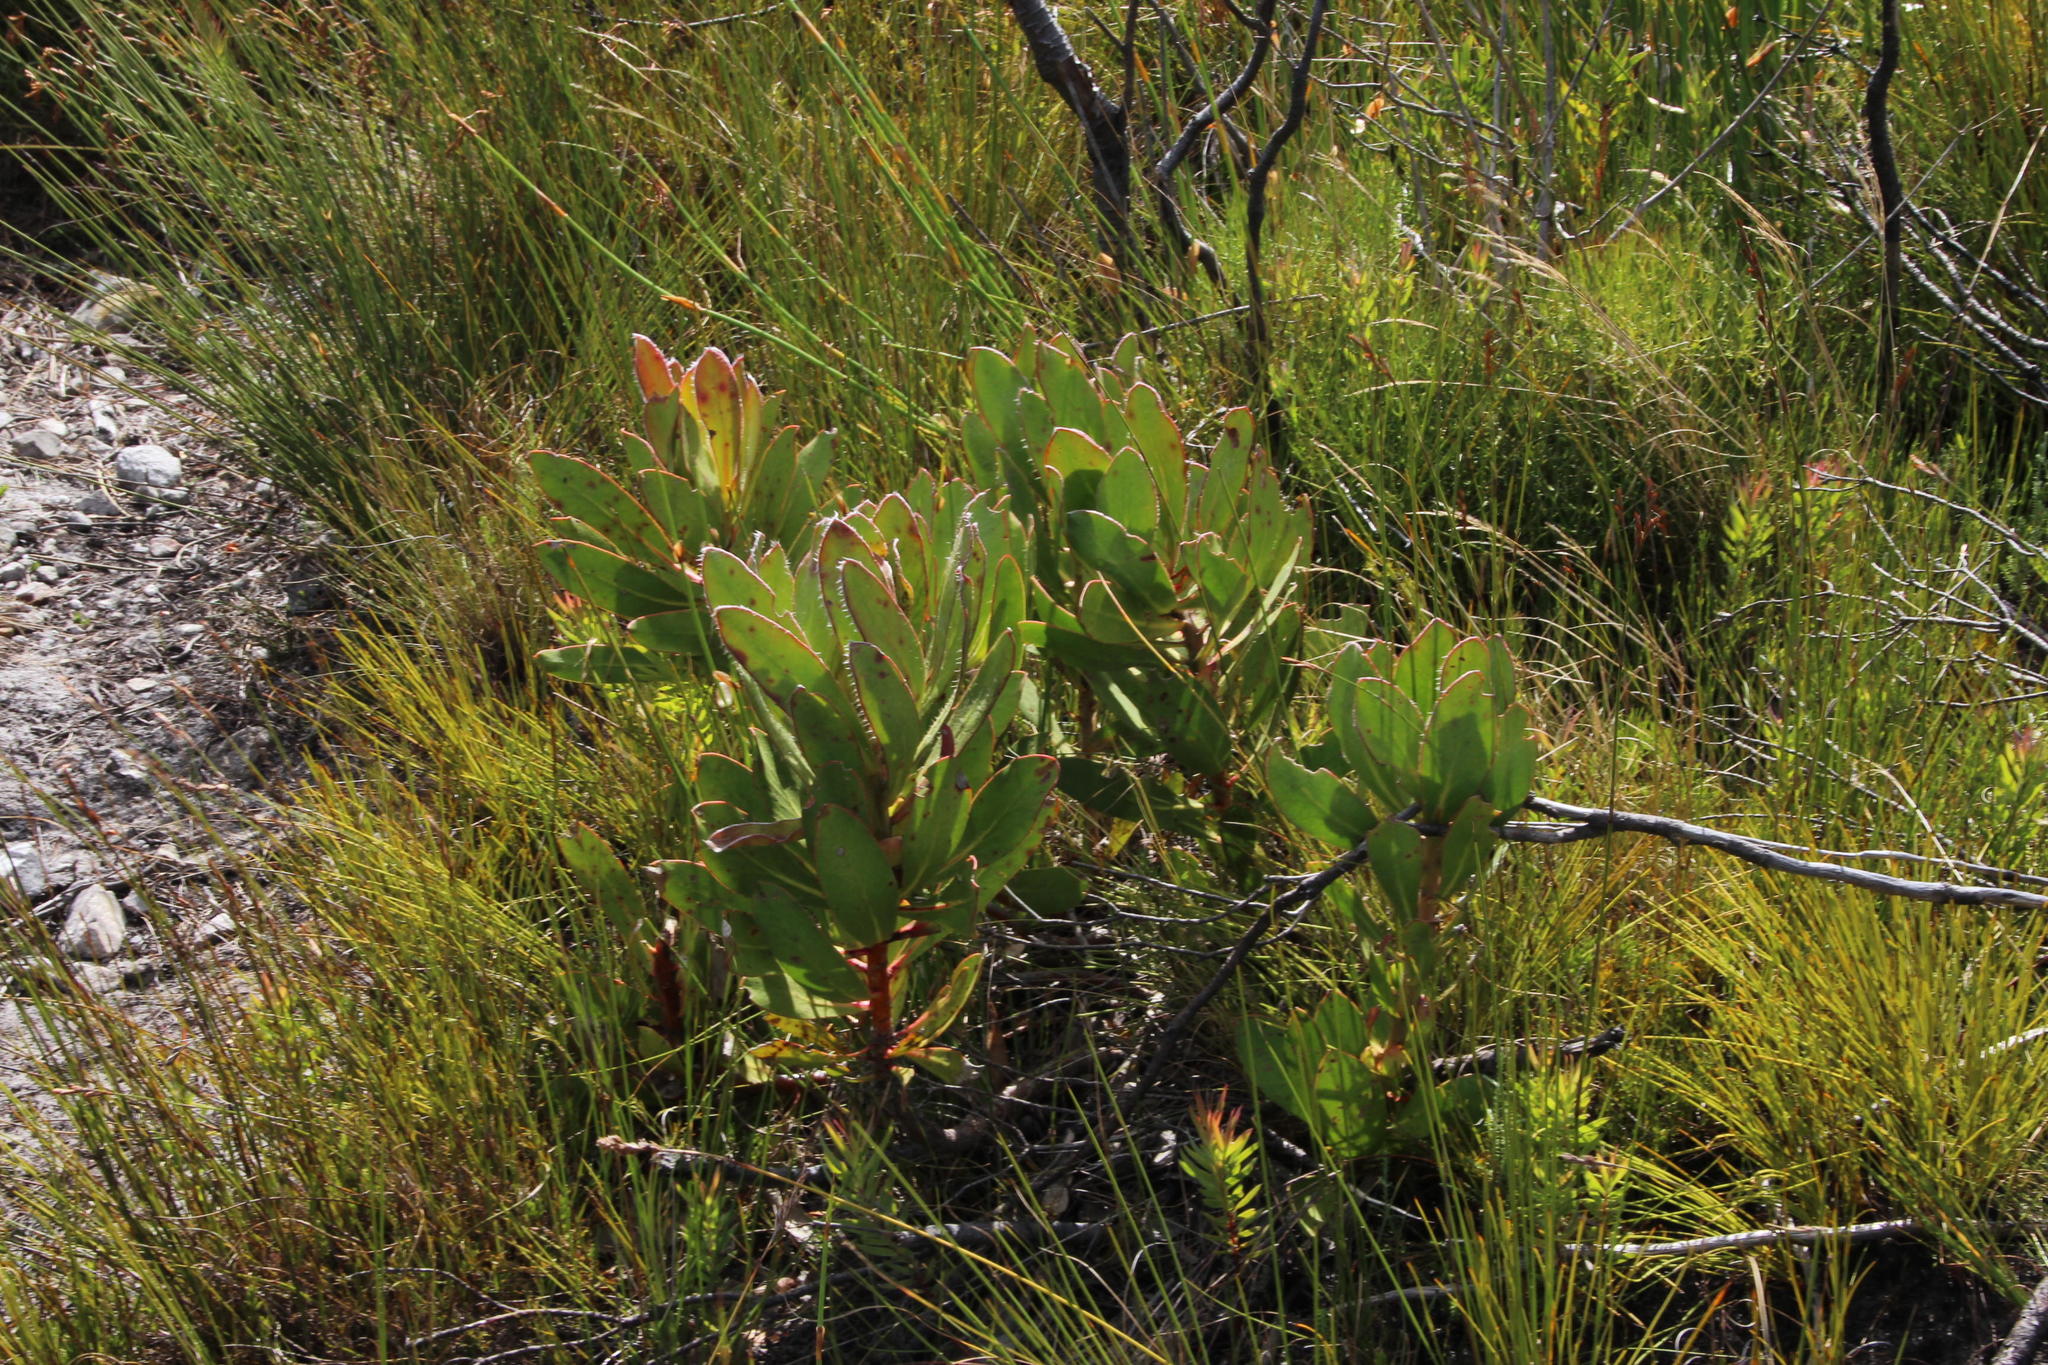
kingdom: Plantae
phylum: Tracheophyta
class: Magnoliopsida
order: Proteales
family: Proteaceae
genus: Protea
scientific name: Protea speciosa
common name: Brown-beard sugarbush
